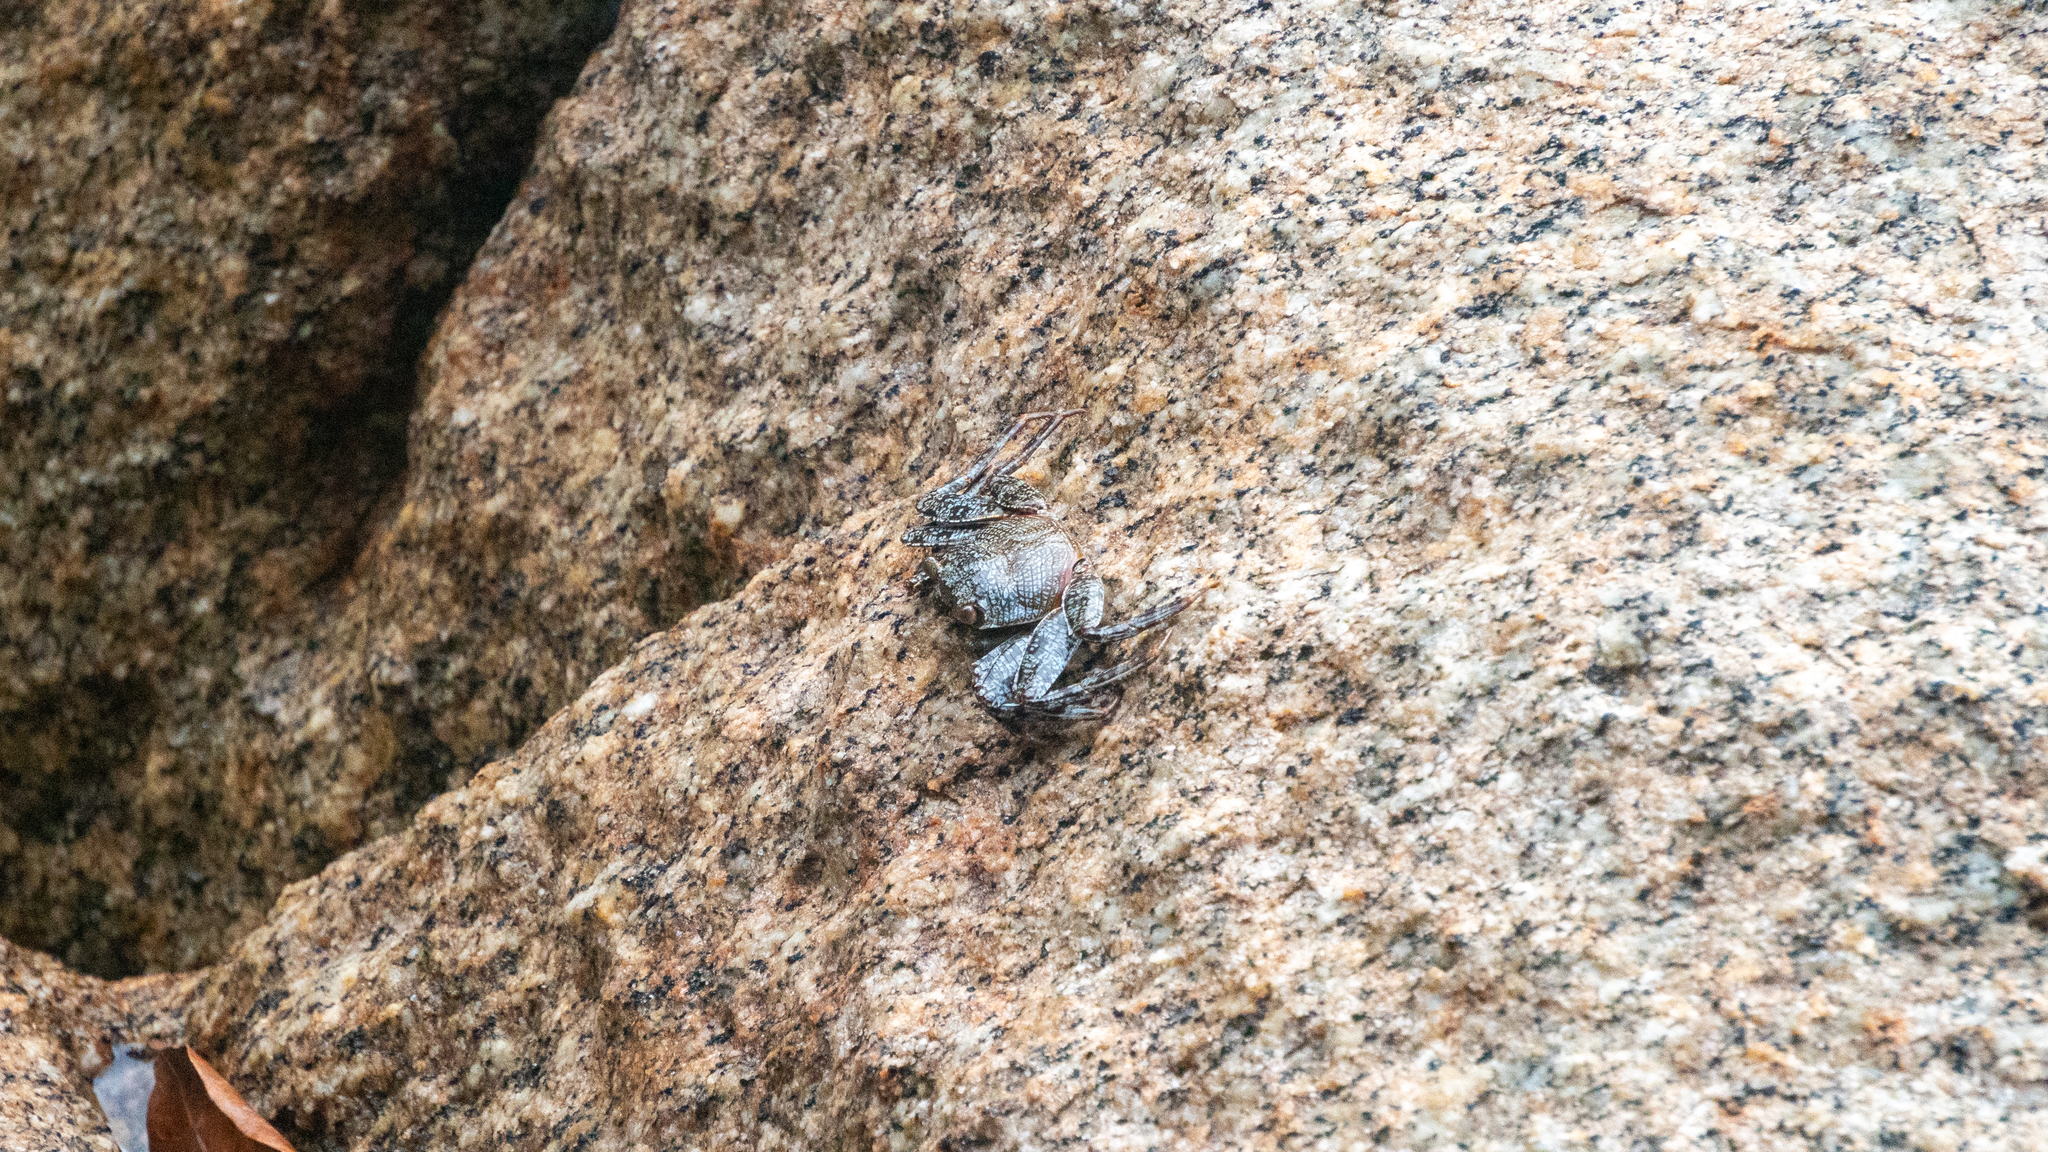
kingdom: Animalia
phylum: Arthropoda
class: Malacostraca
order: Decapoda
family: Grapsidae
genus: Grapsus
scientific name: Grapsus grapsus
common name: Sally lightfoot
